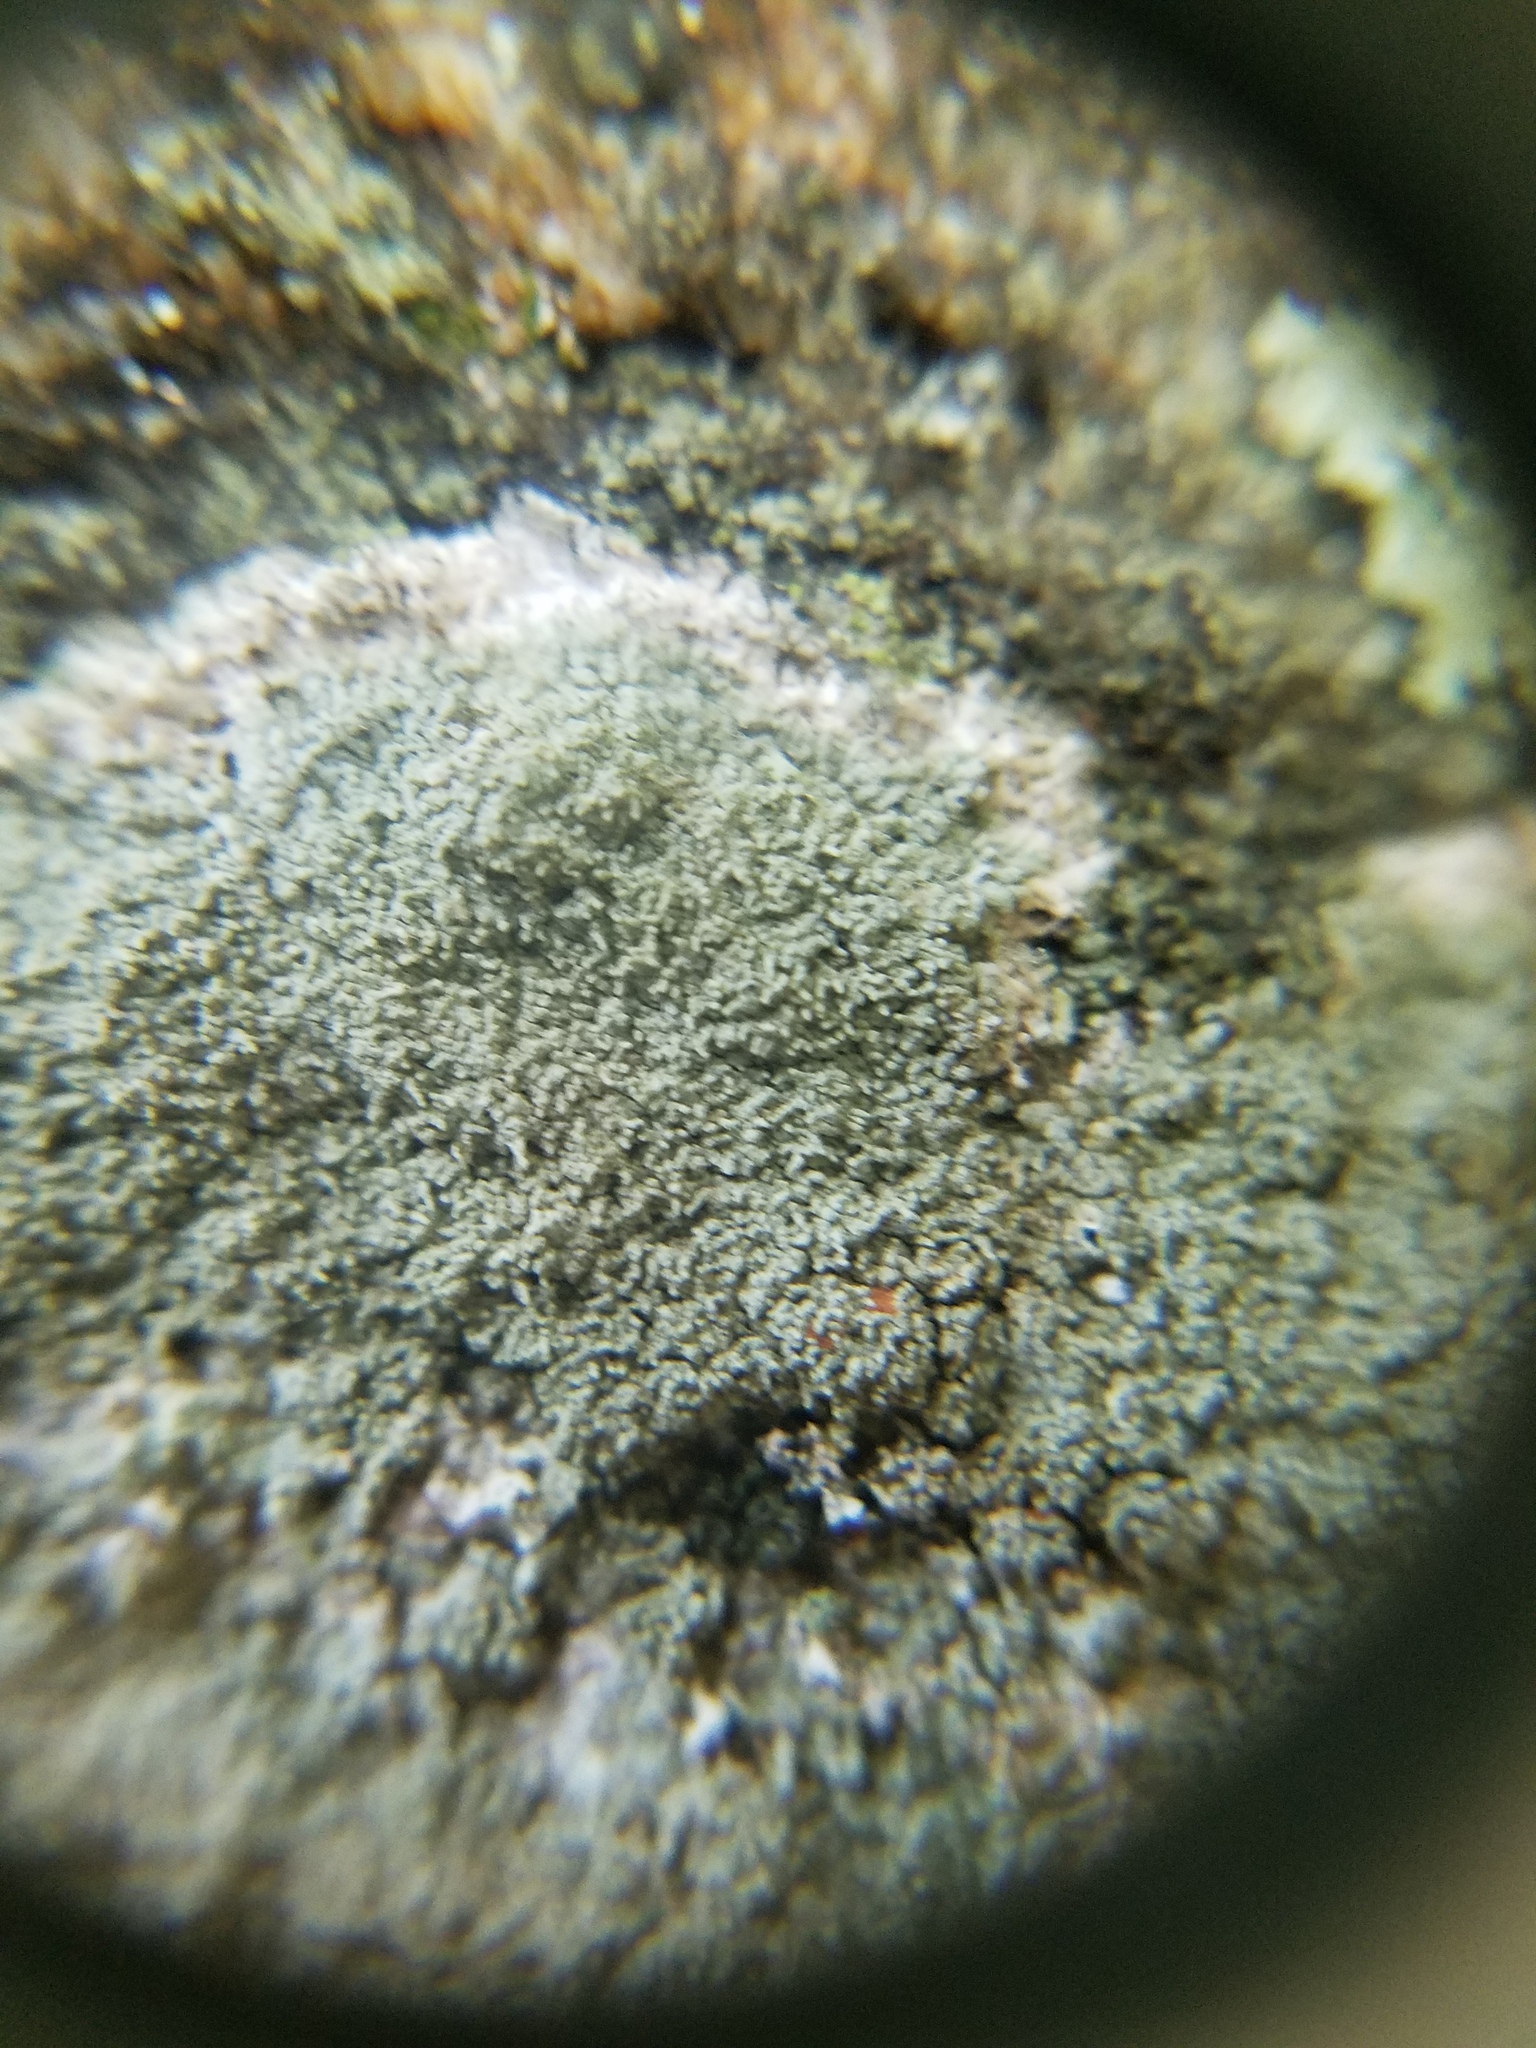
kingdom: Fungi
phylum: Ascomycota
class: Lecanoromycetes
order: Pertusariales
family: Ochrolechiaceae
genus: Ochrolechia
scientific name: Ochrolechia yasudae
